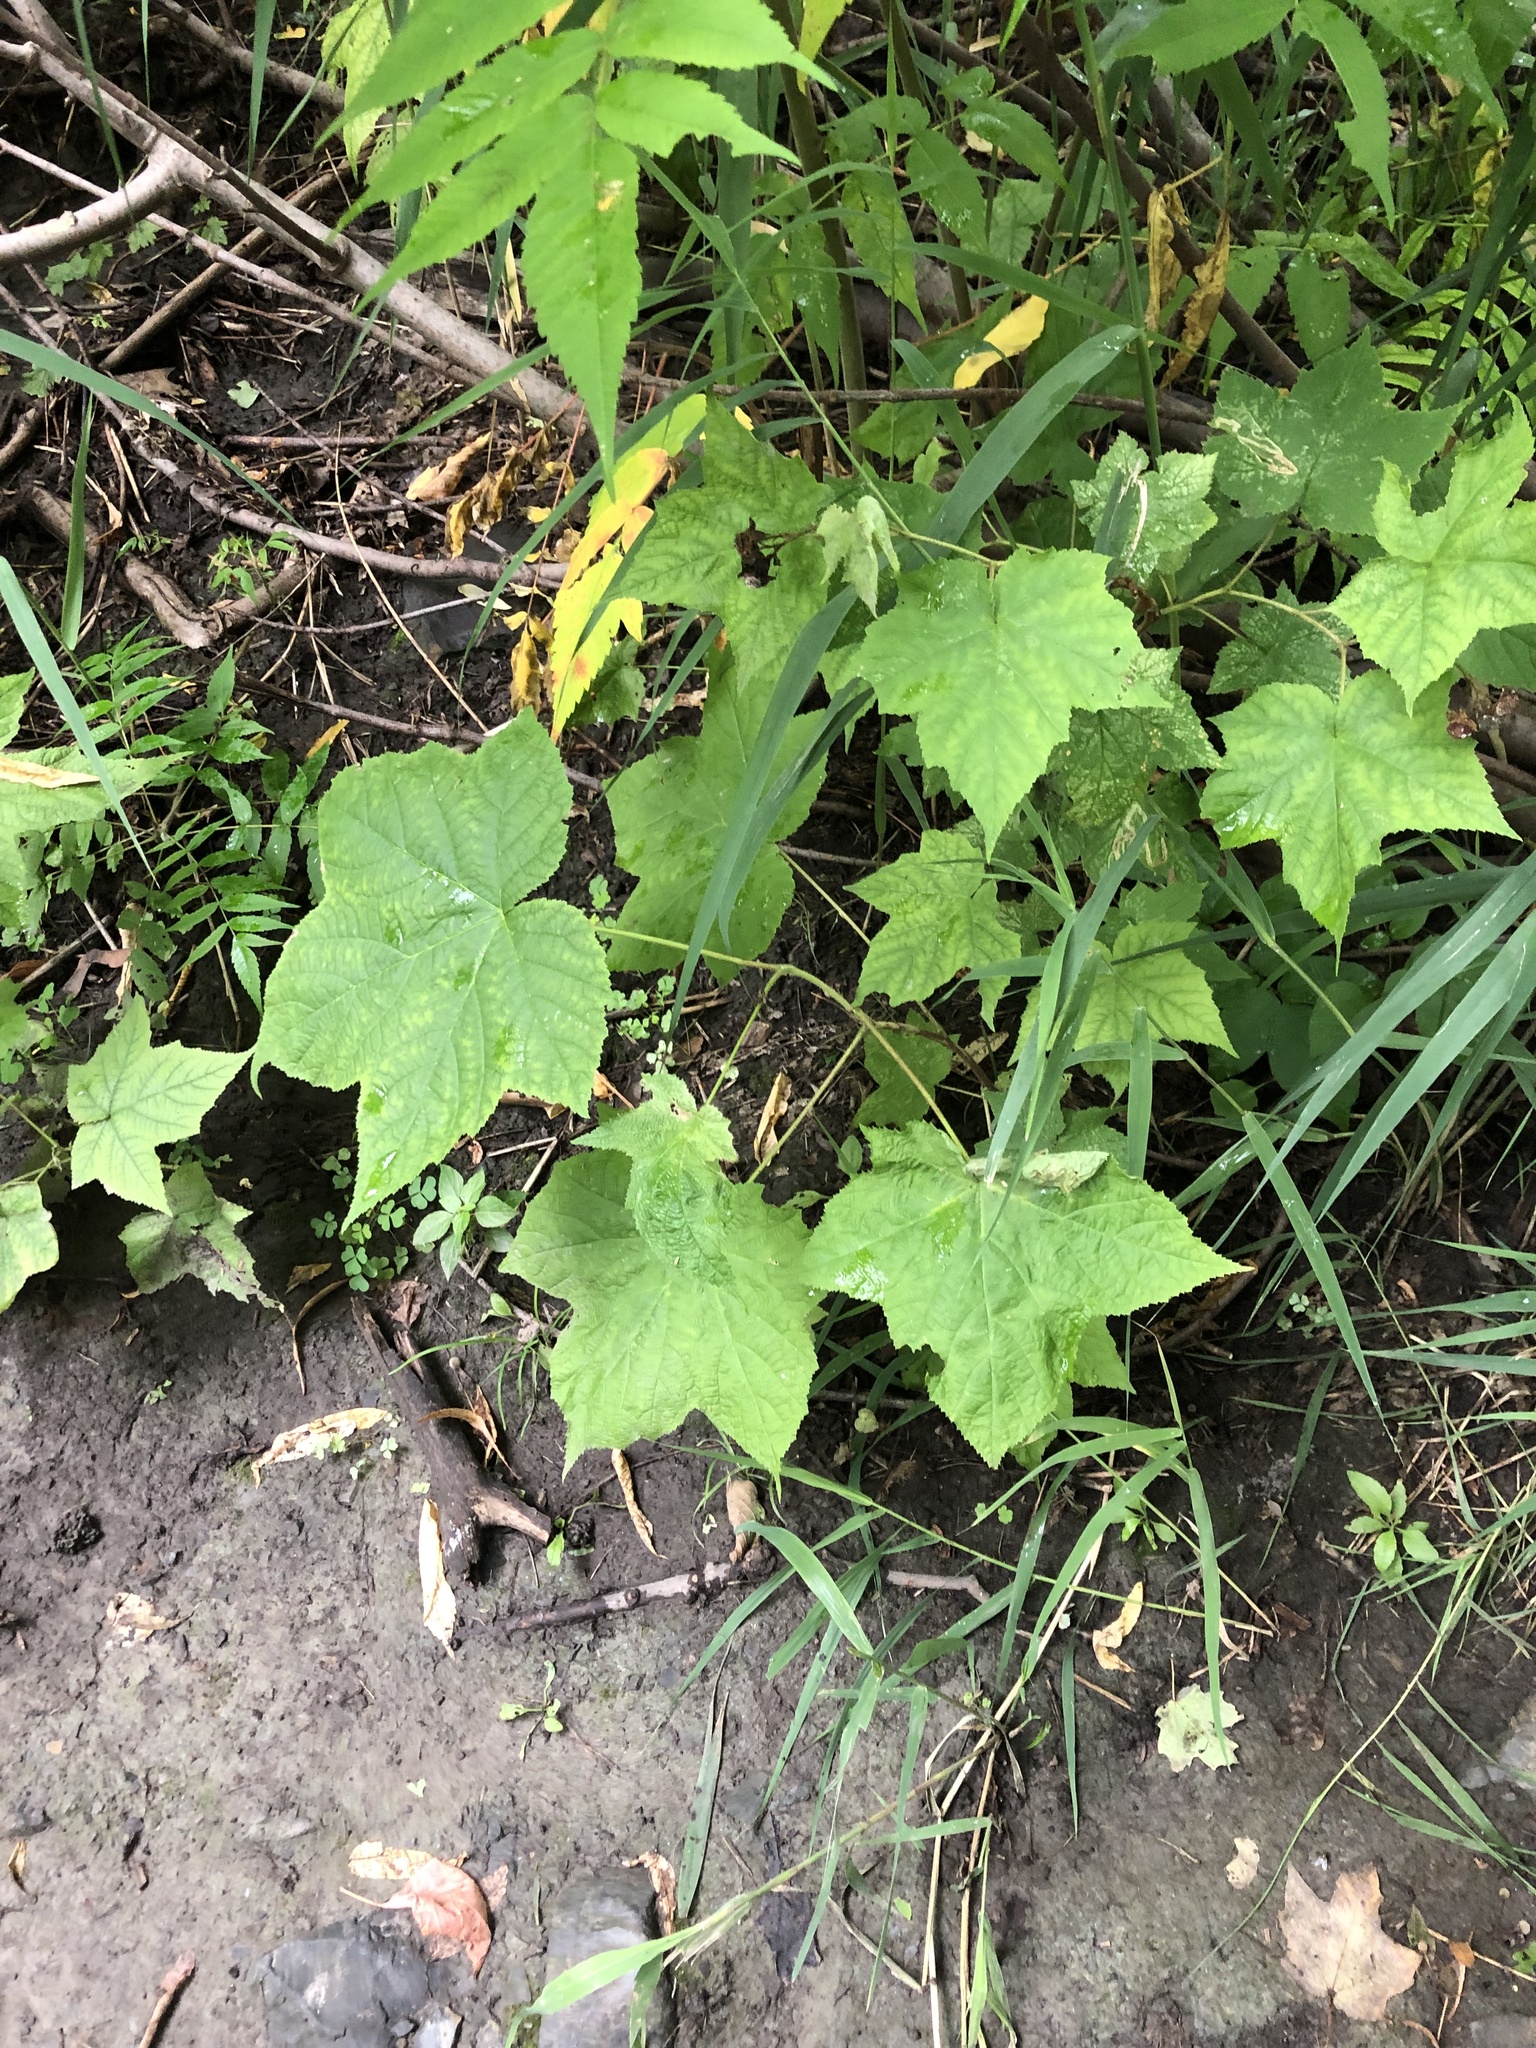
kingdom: Plantae
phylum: Tracheophyta
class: Magnoliopsida
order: Rosales
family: Rosaceae
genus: Rubus
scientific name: Rubus odoratus
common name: Purple-flowered raspberry
